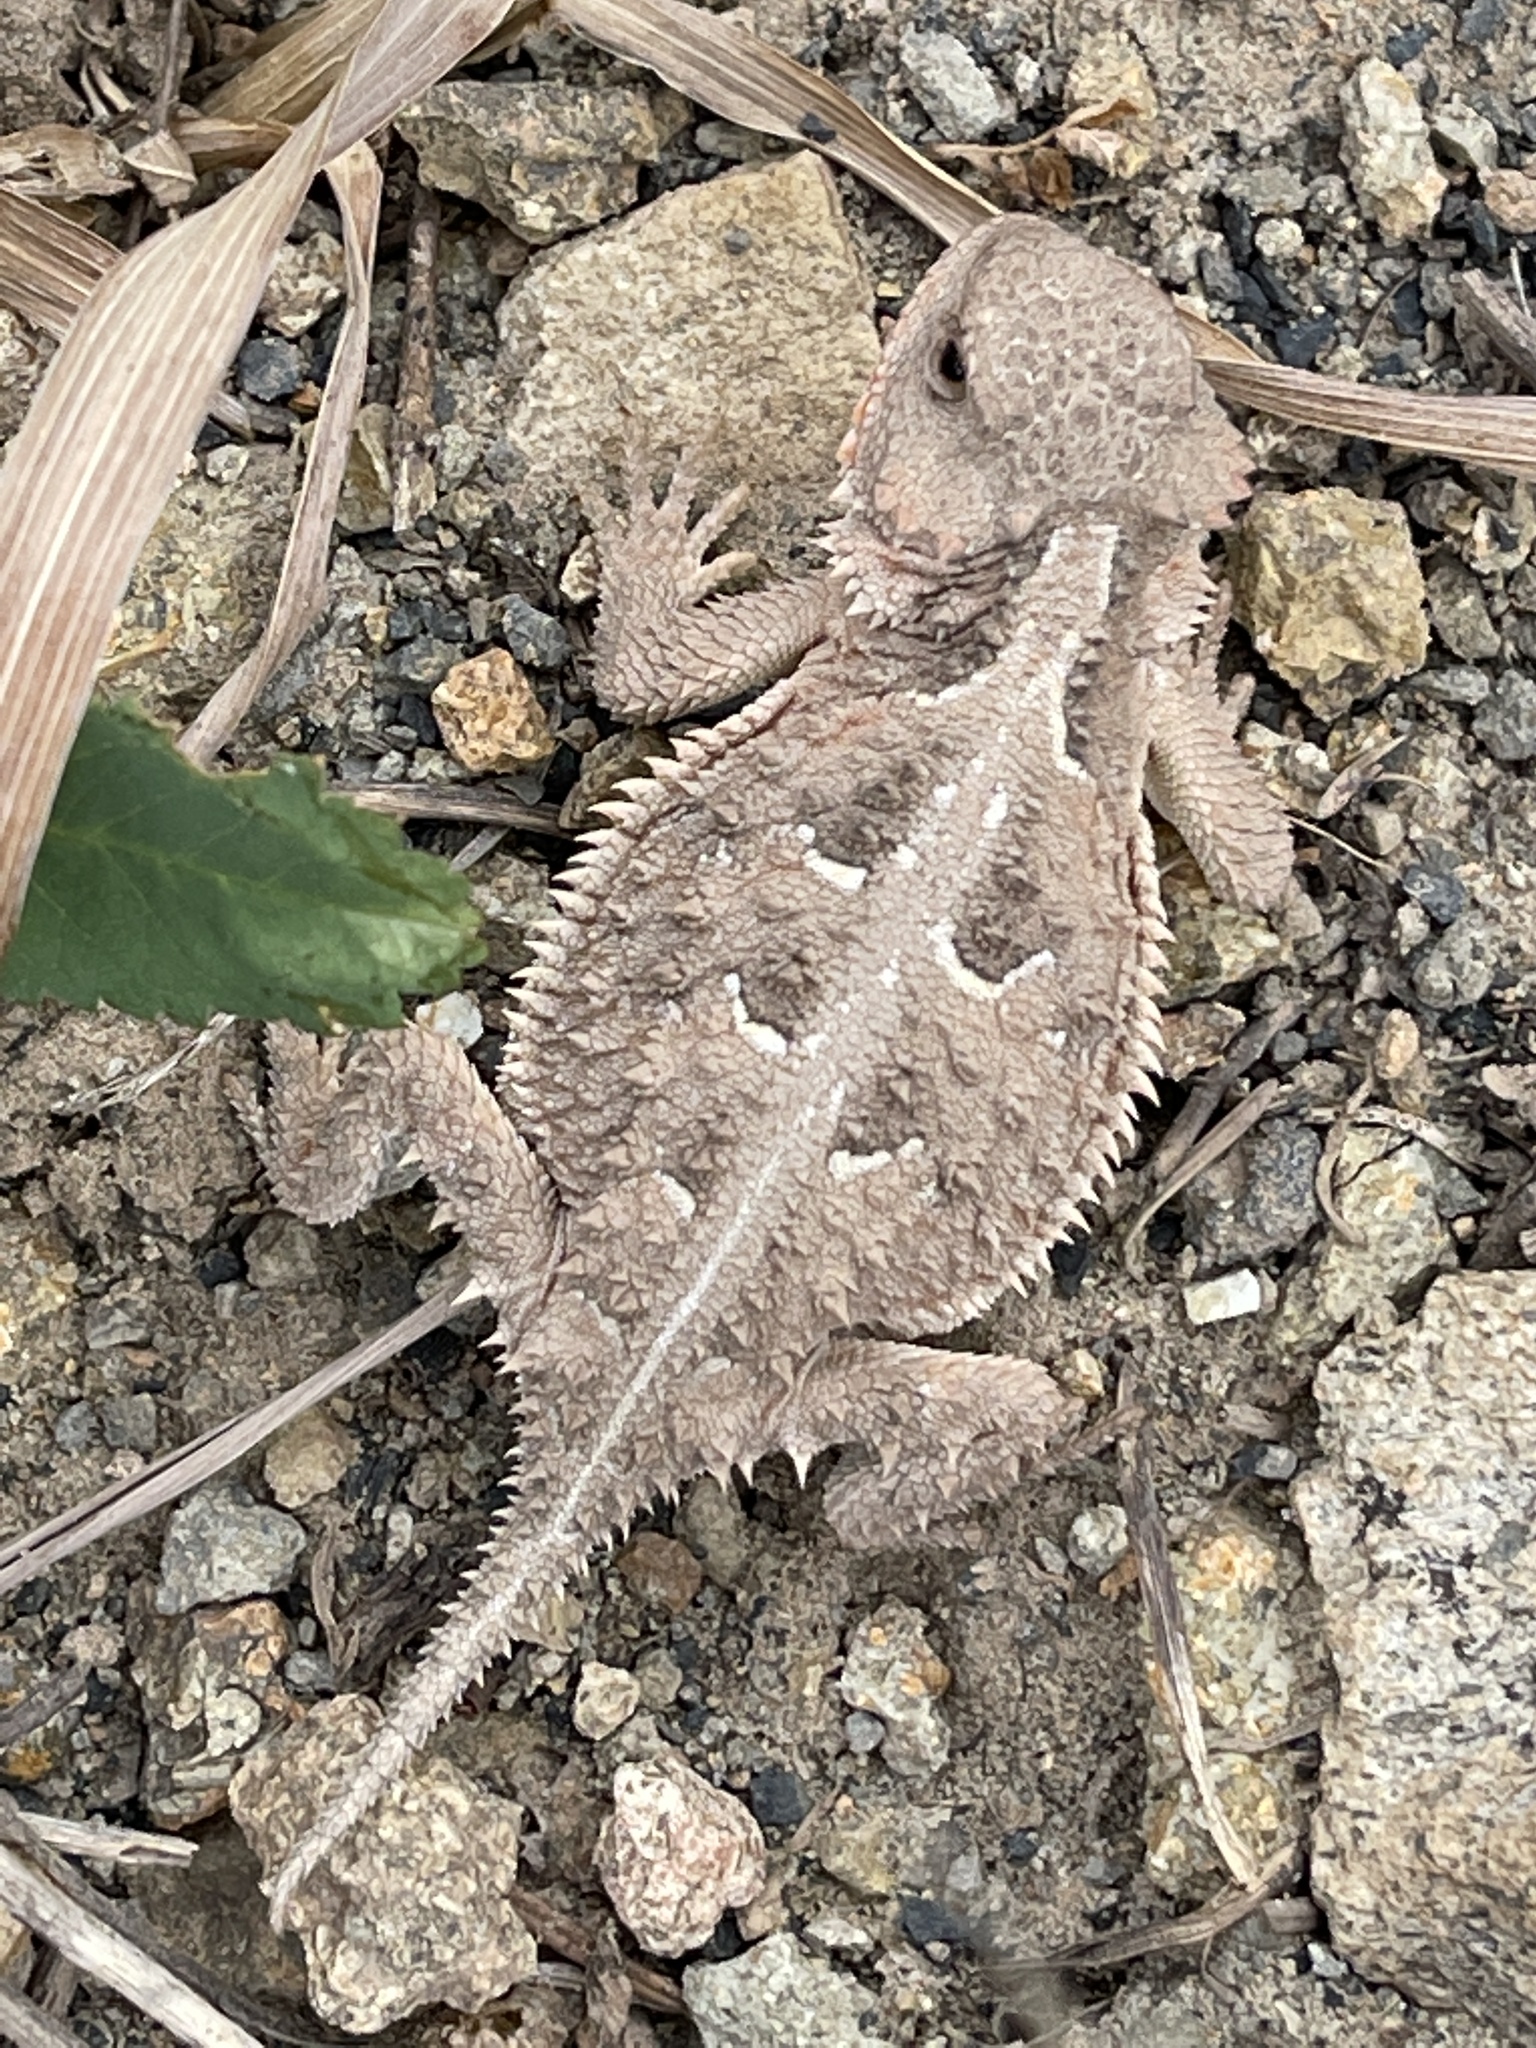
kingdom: Animalia
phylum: Chordata
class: Squamata
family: Phrynosomatidae
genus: Phrynosoma
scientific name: Phrynosoma hernandesi
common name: Greater short-horned lizard
